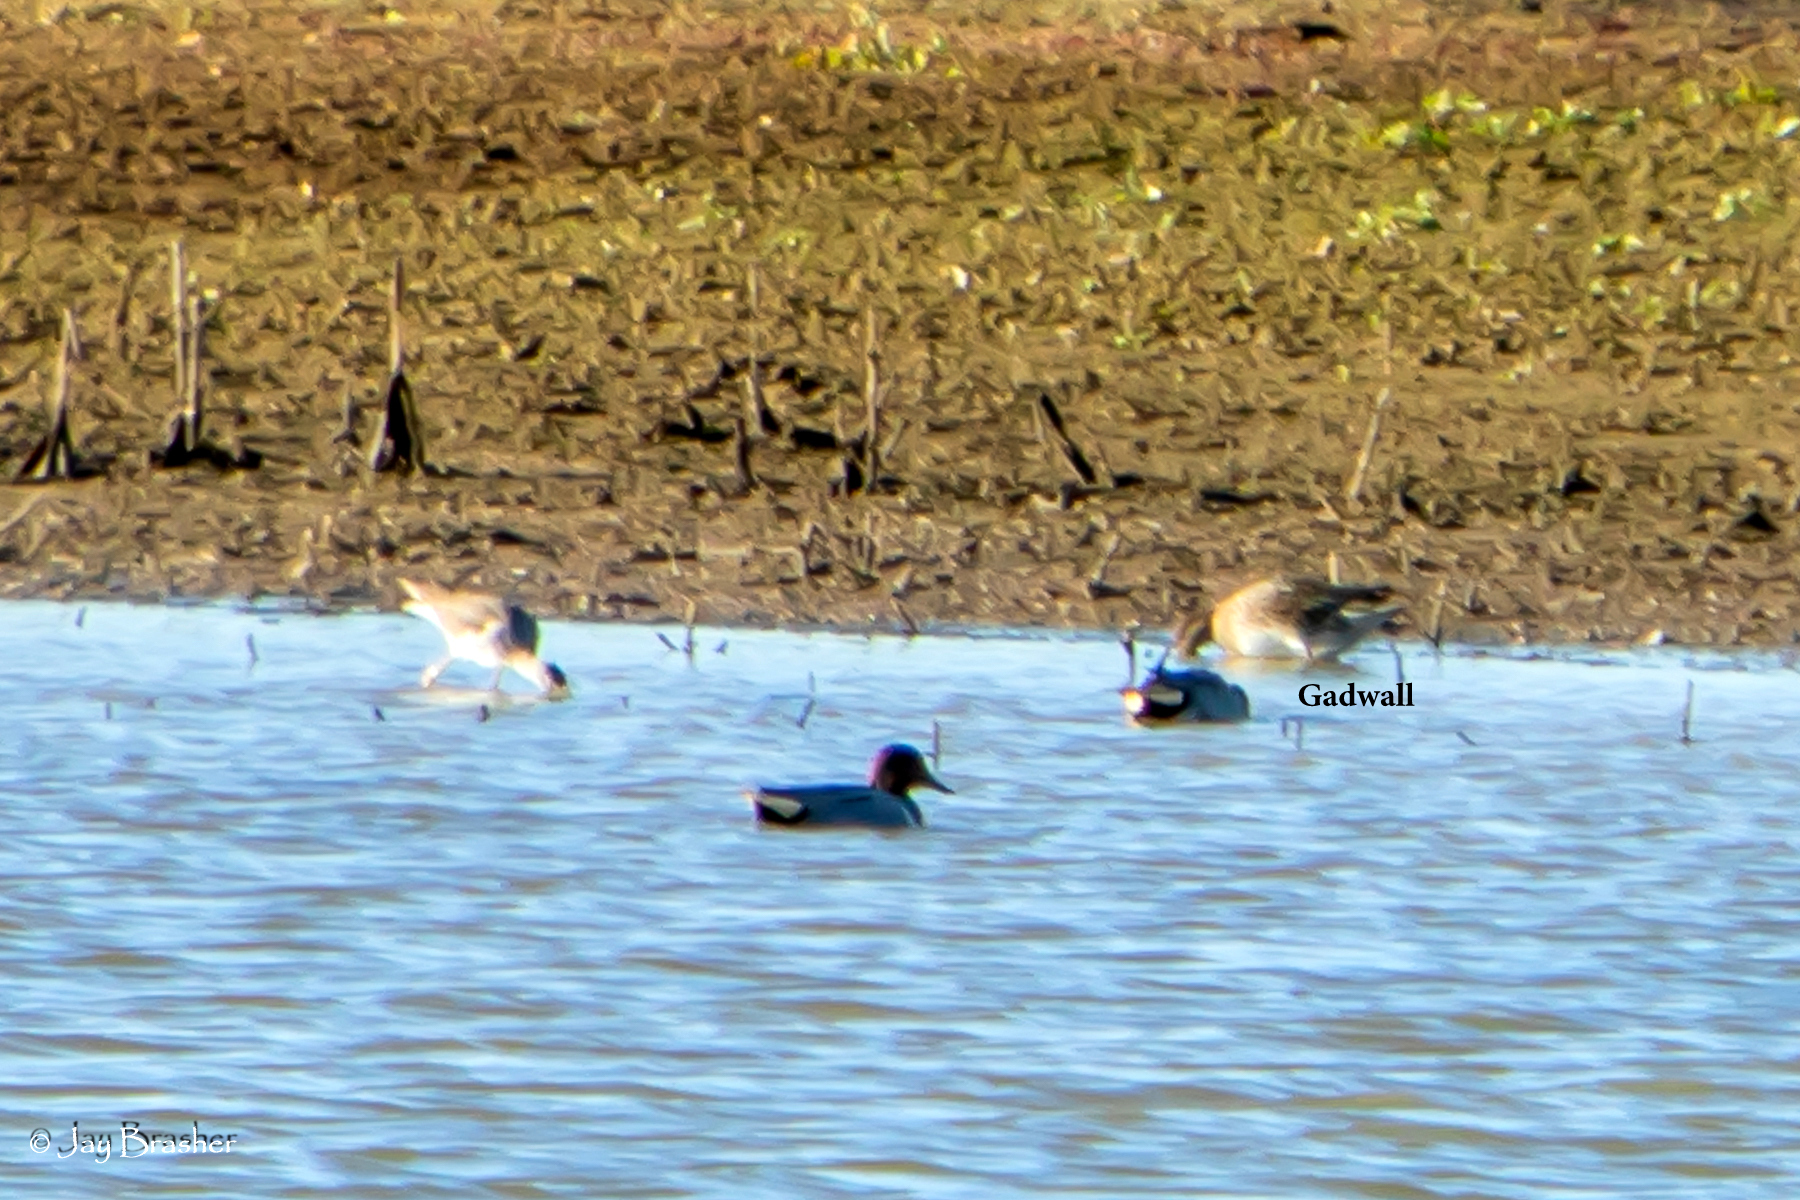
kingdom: Animalia
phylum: Chordata
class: Aves
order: Anseriformes
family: Anatidae
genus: Mareca
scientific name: Mareca strepera
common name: Gadwall
